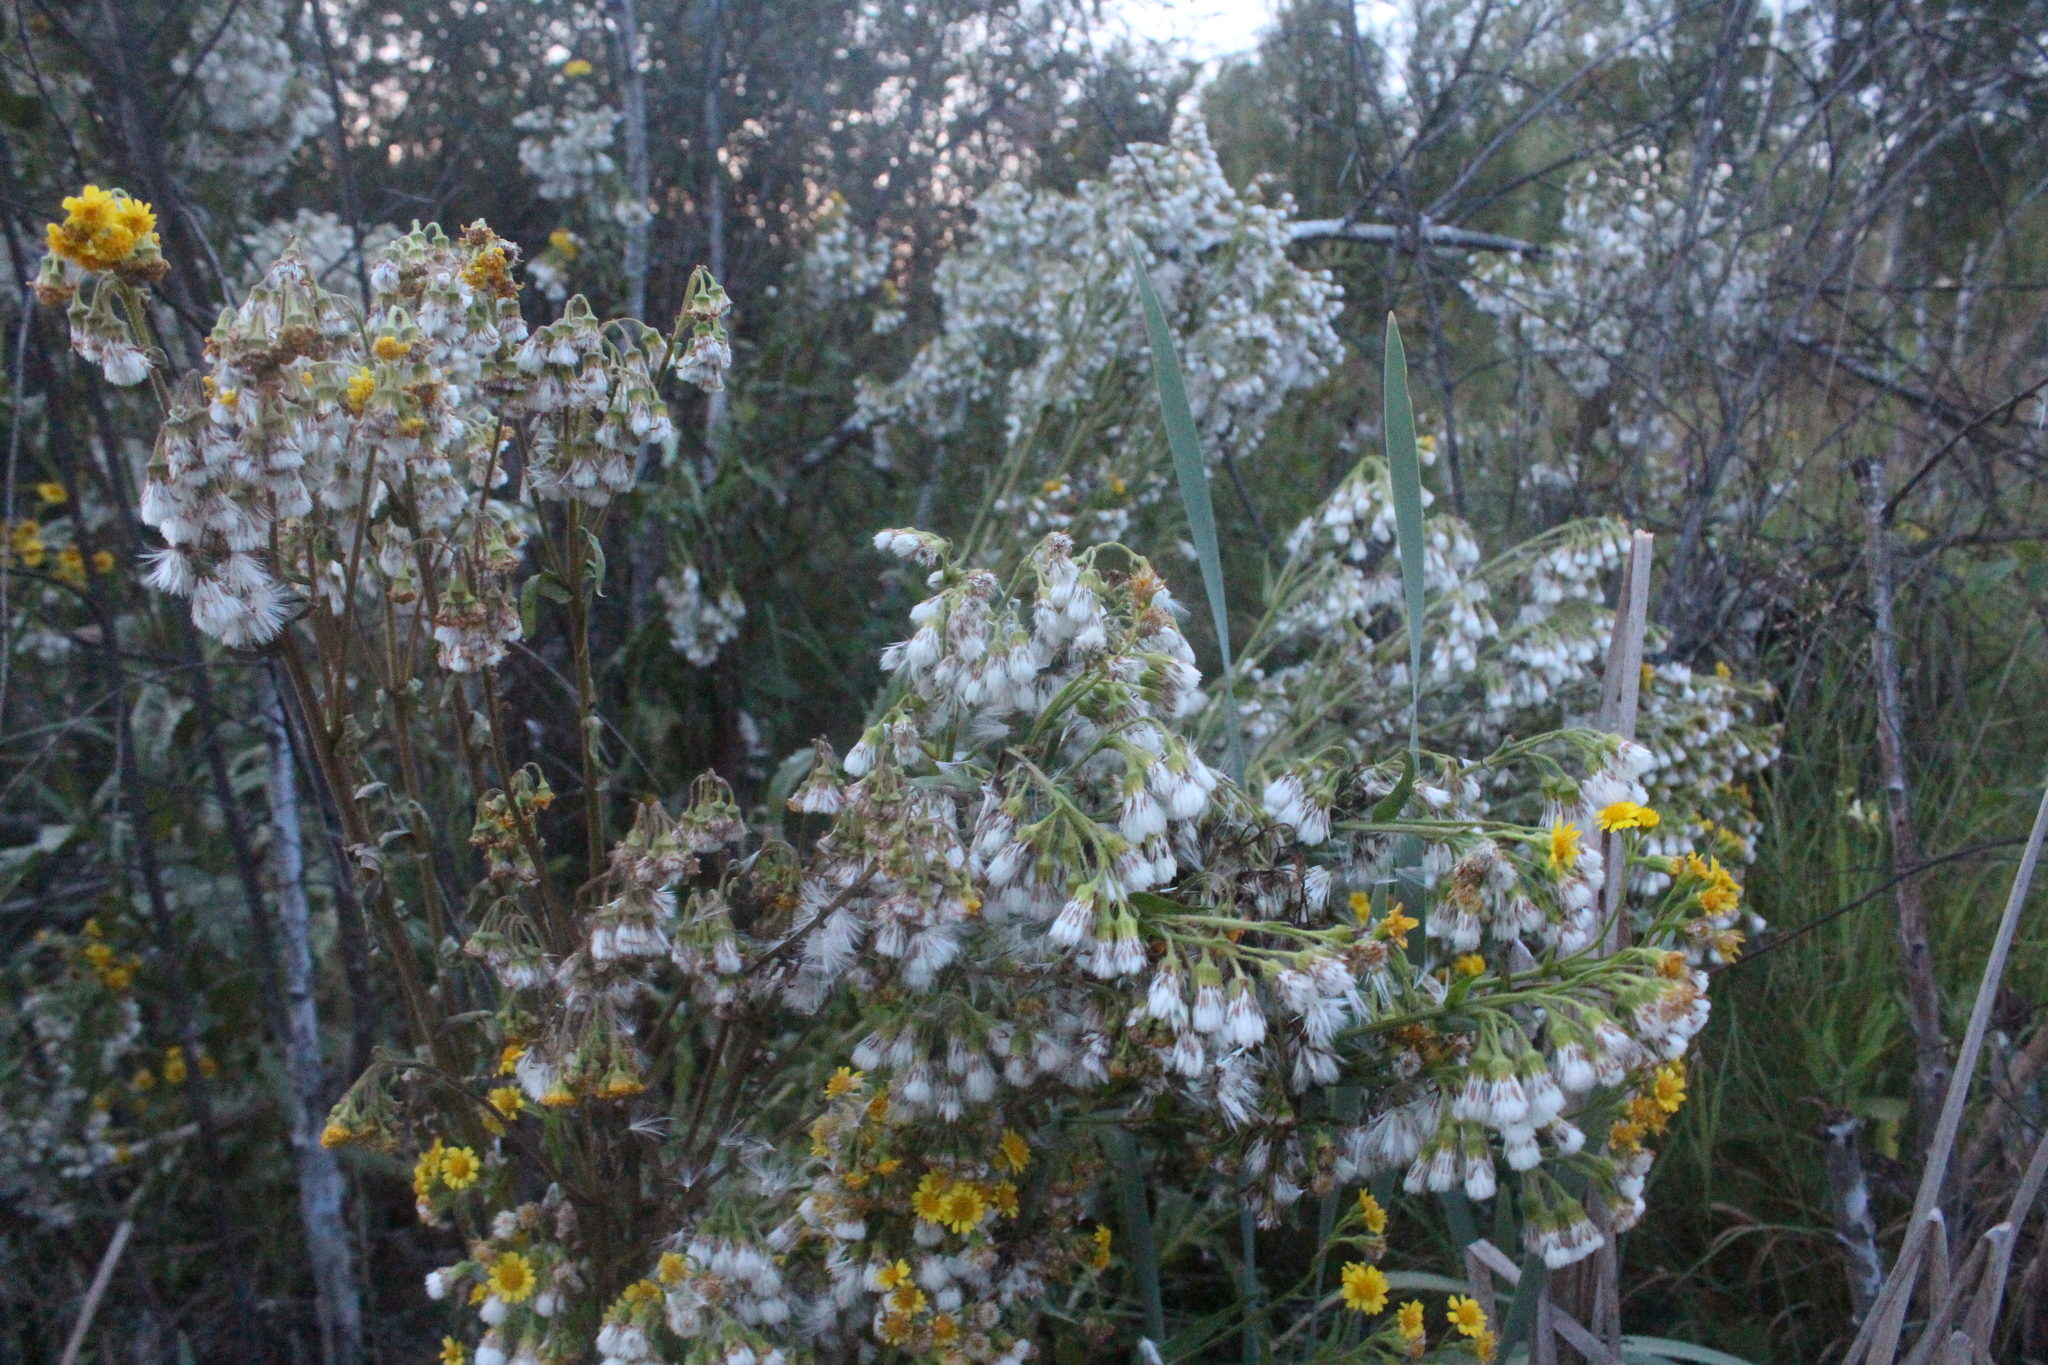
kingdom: Plantae
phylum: Tracheophyta
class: Magnoliopsida
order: Asterales
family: Asteraceae
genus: Tephroseris
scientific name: Tephroseris palustris
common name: Marsh fleawort
